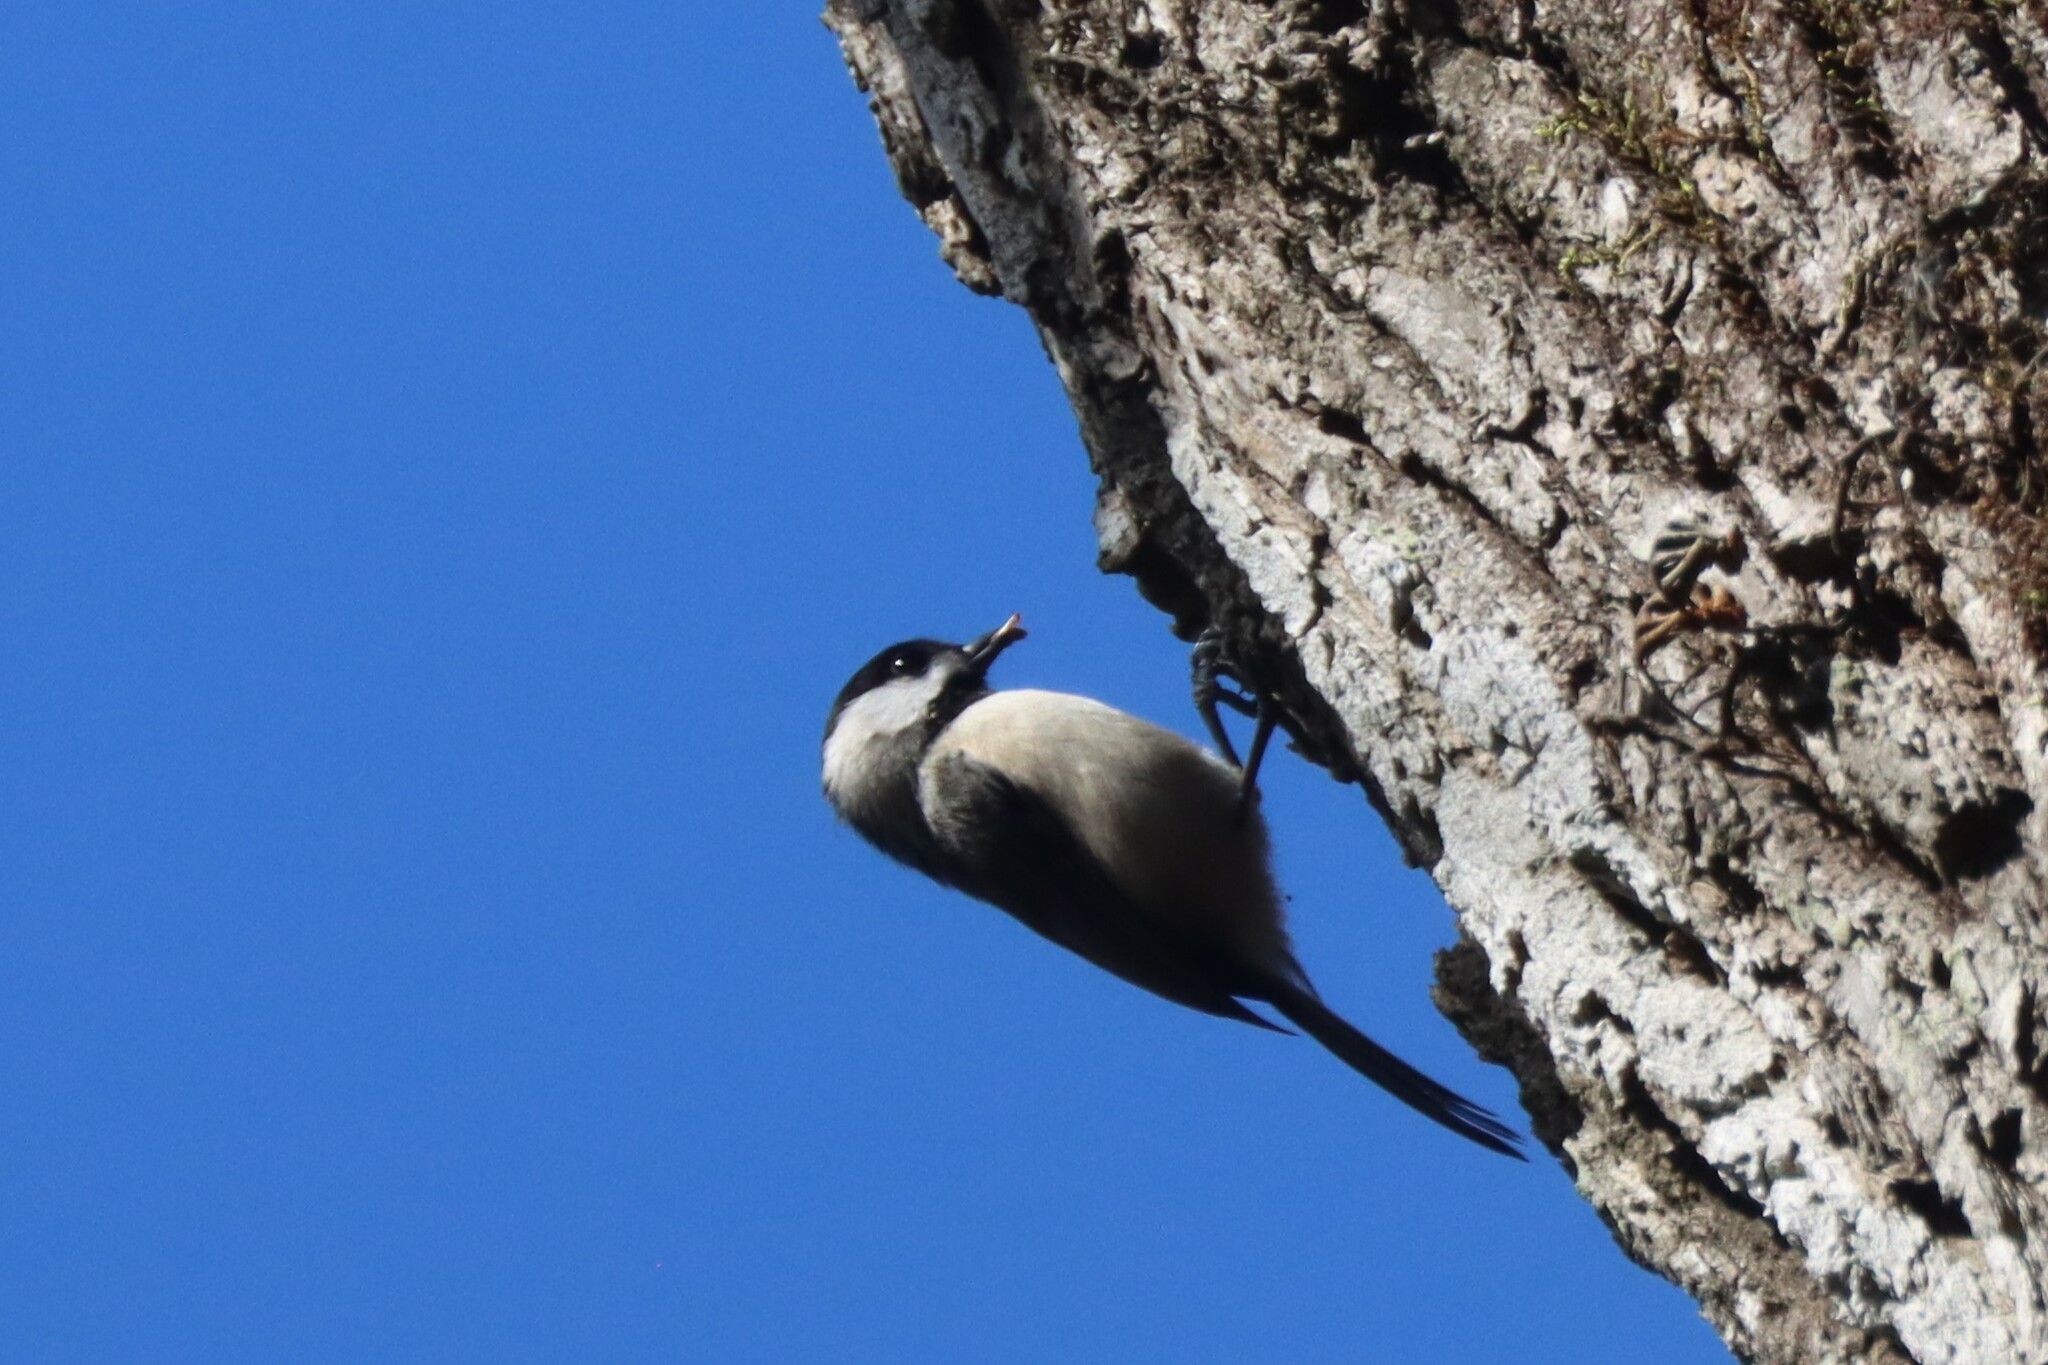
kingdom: Animalia
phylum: Chordata
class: Aves
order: Passeriformes
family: Paridae
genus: Poecile
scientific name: Poecile carolinensis
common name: Carolina chickadee
